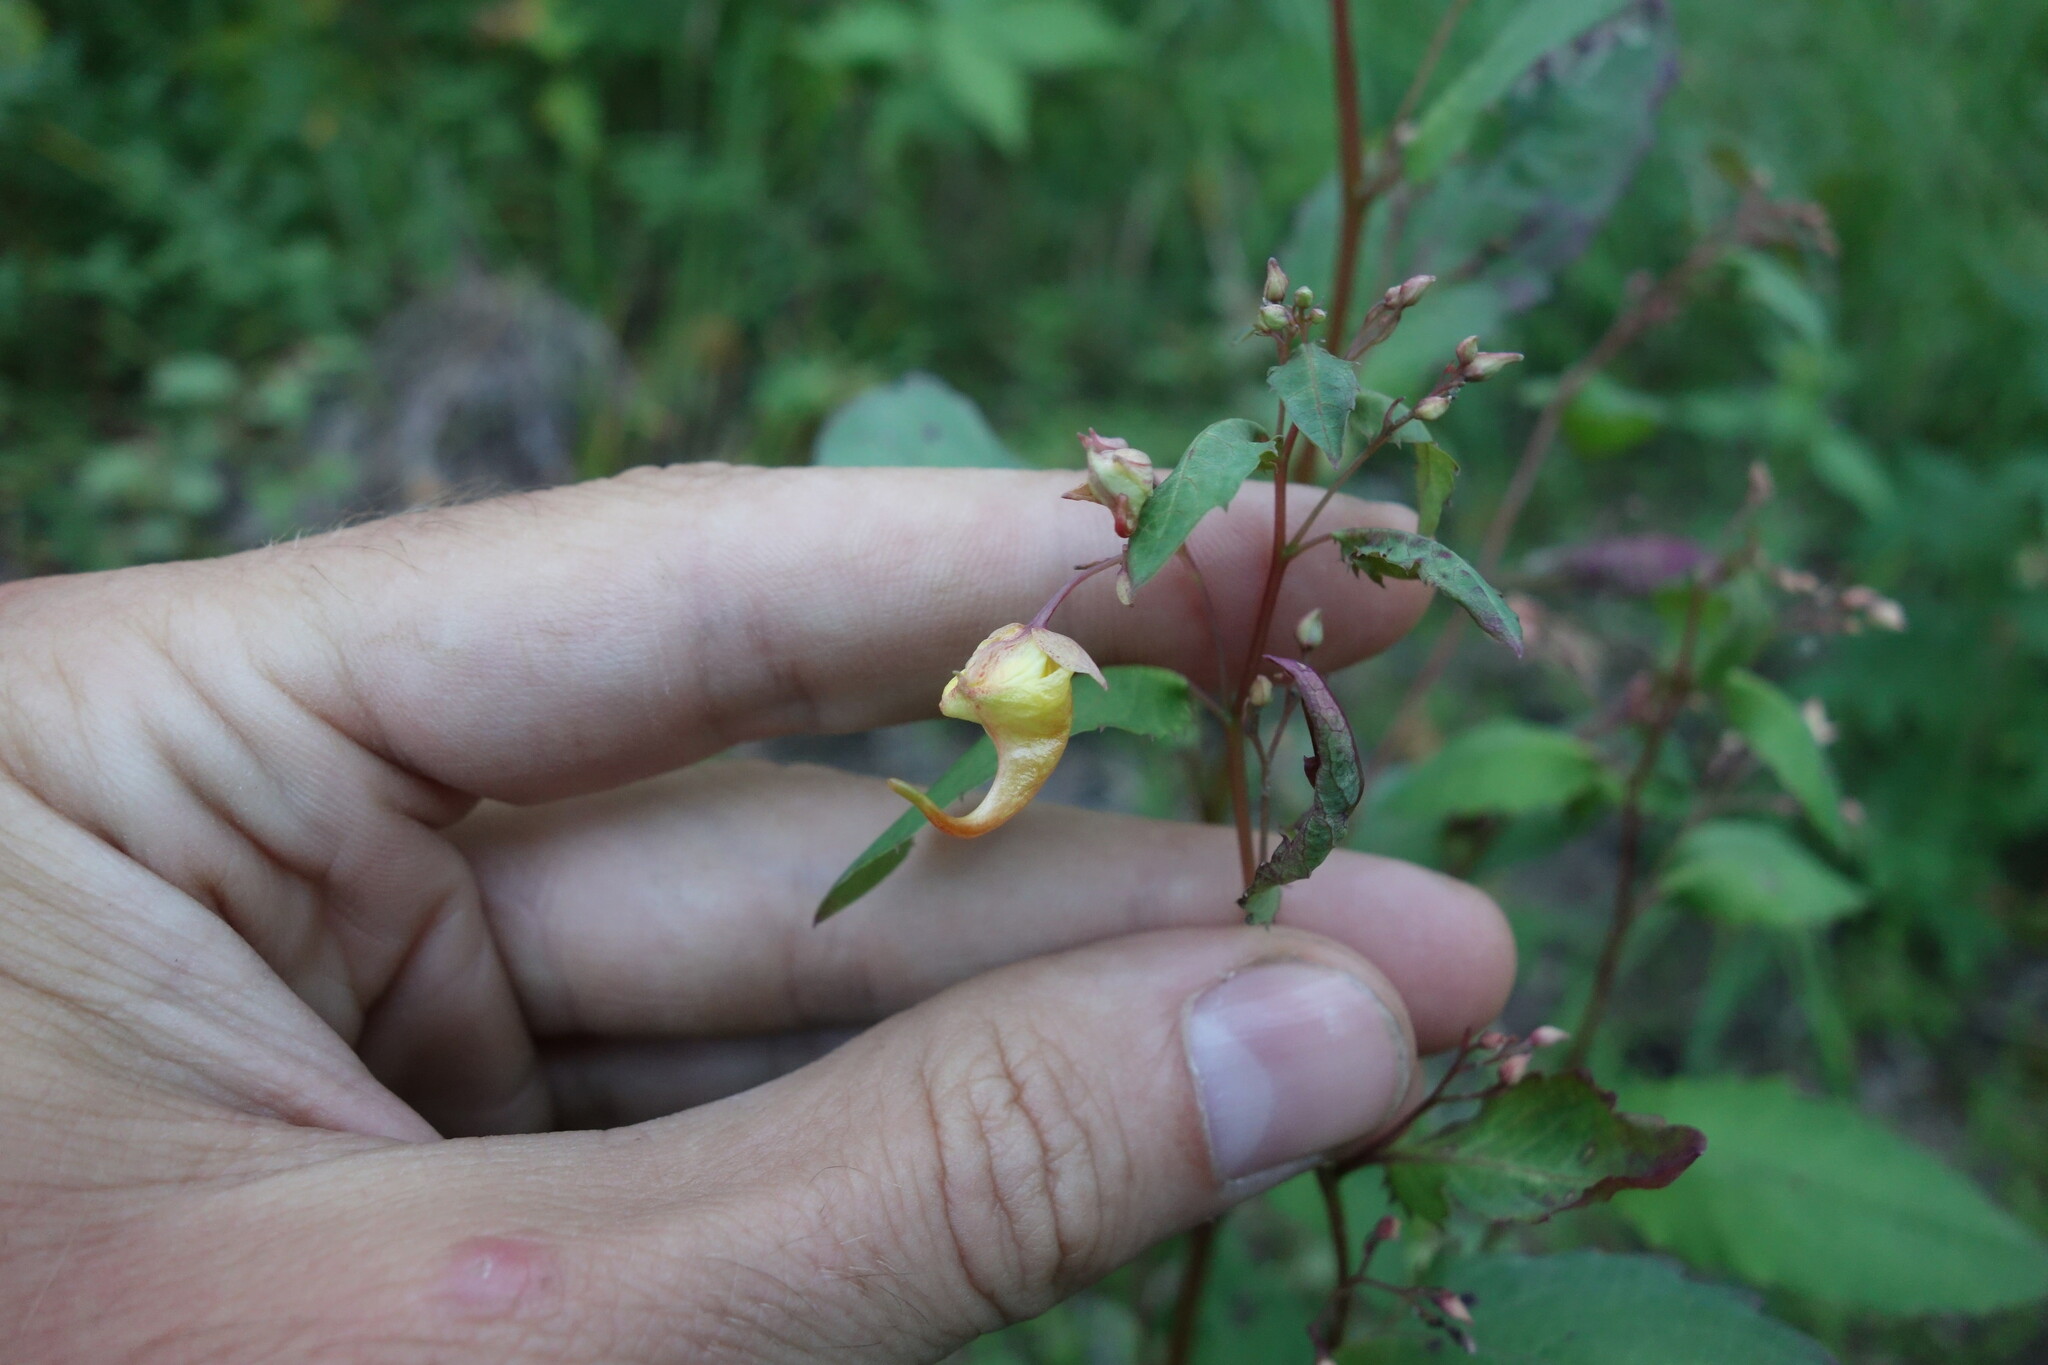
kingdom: Plantae
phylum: Tracheophyta
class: Magnoliopsida
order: Ericales
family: Balsaminaceae
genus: Impatiens
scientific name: Impatiens noli-tangere
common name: Touch-me-not balsam
